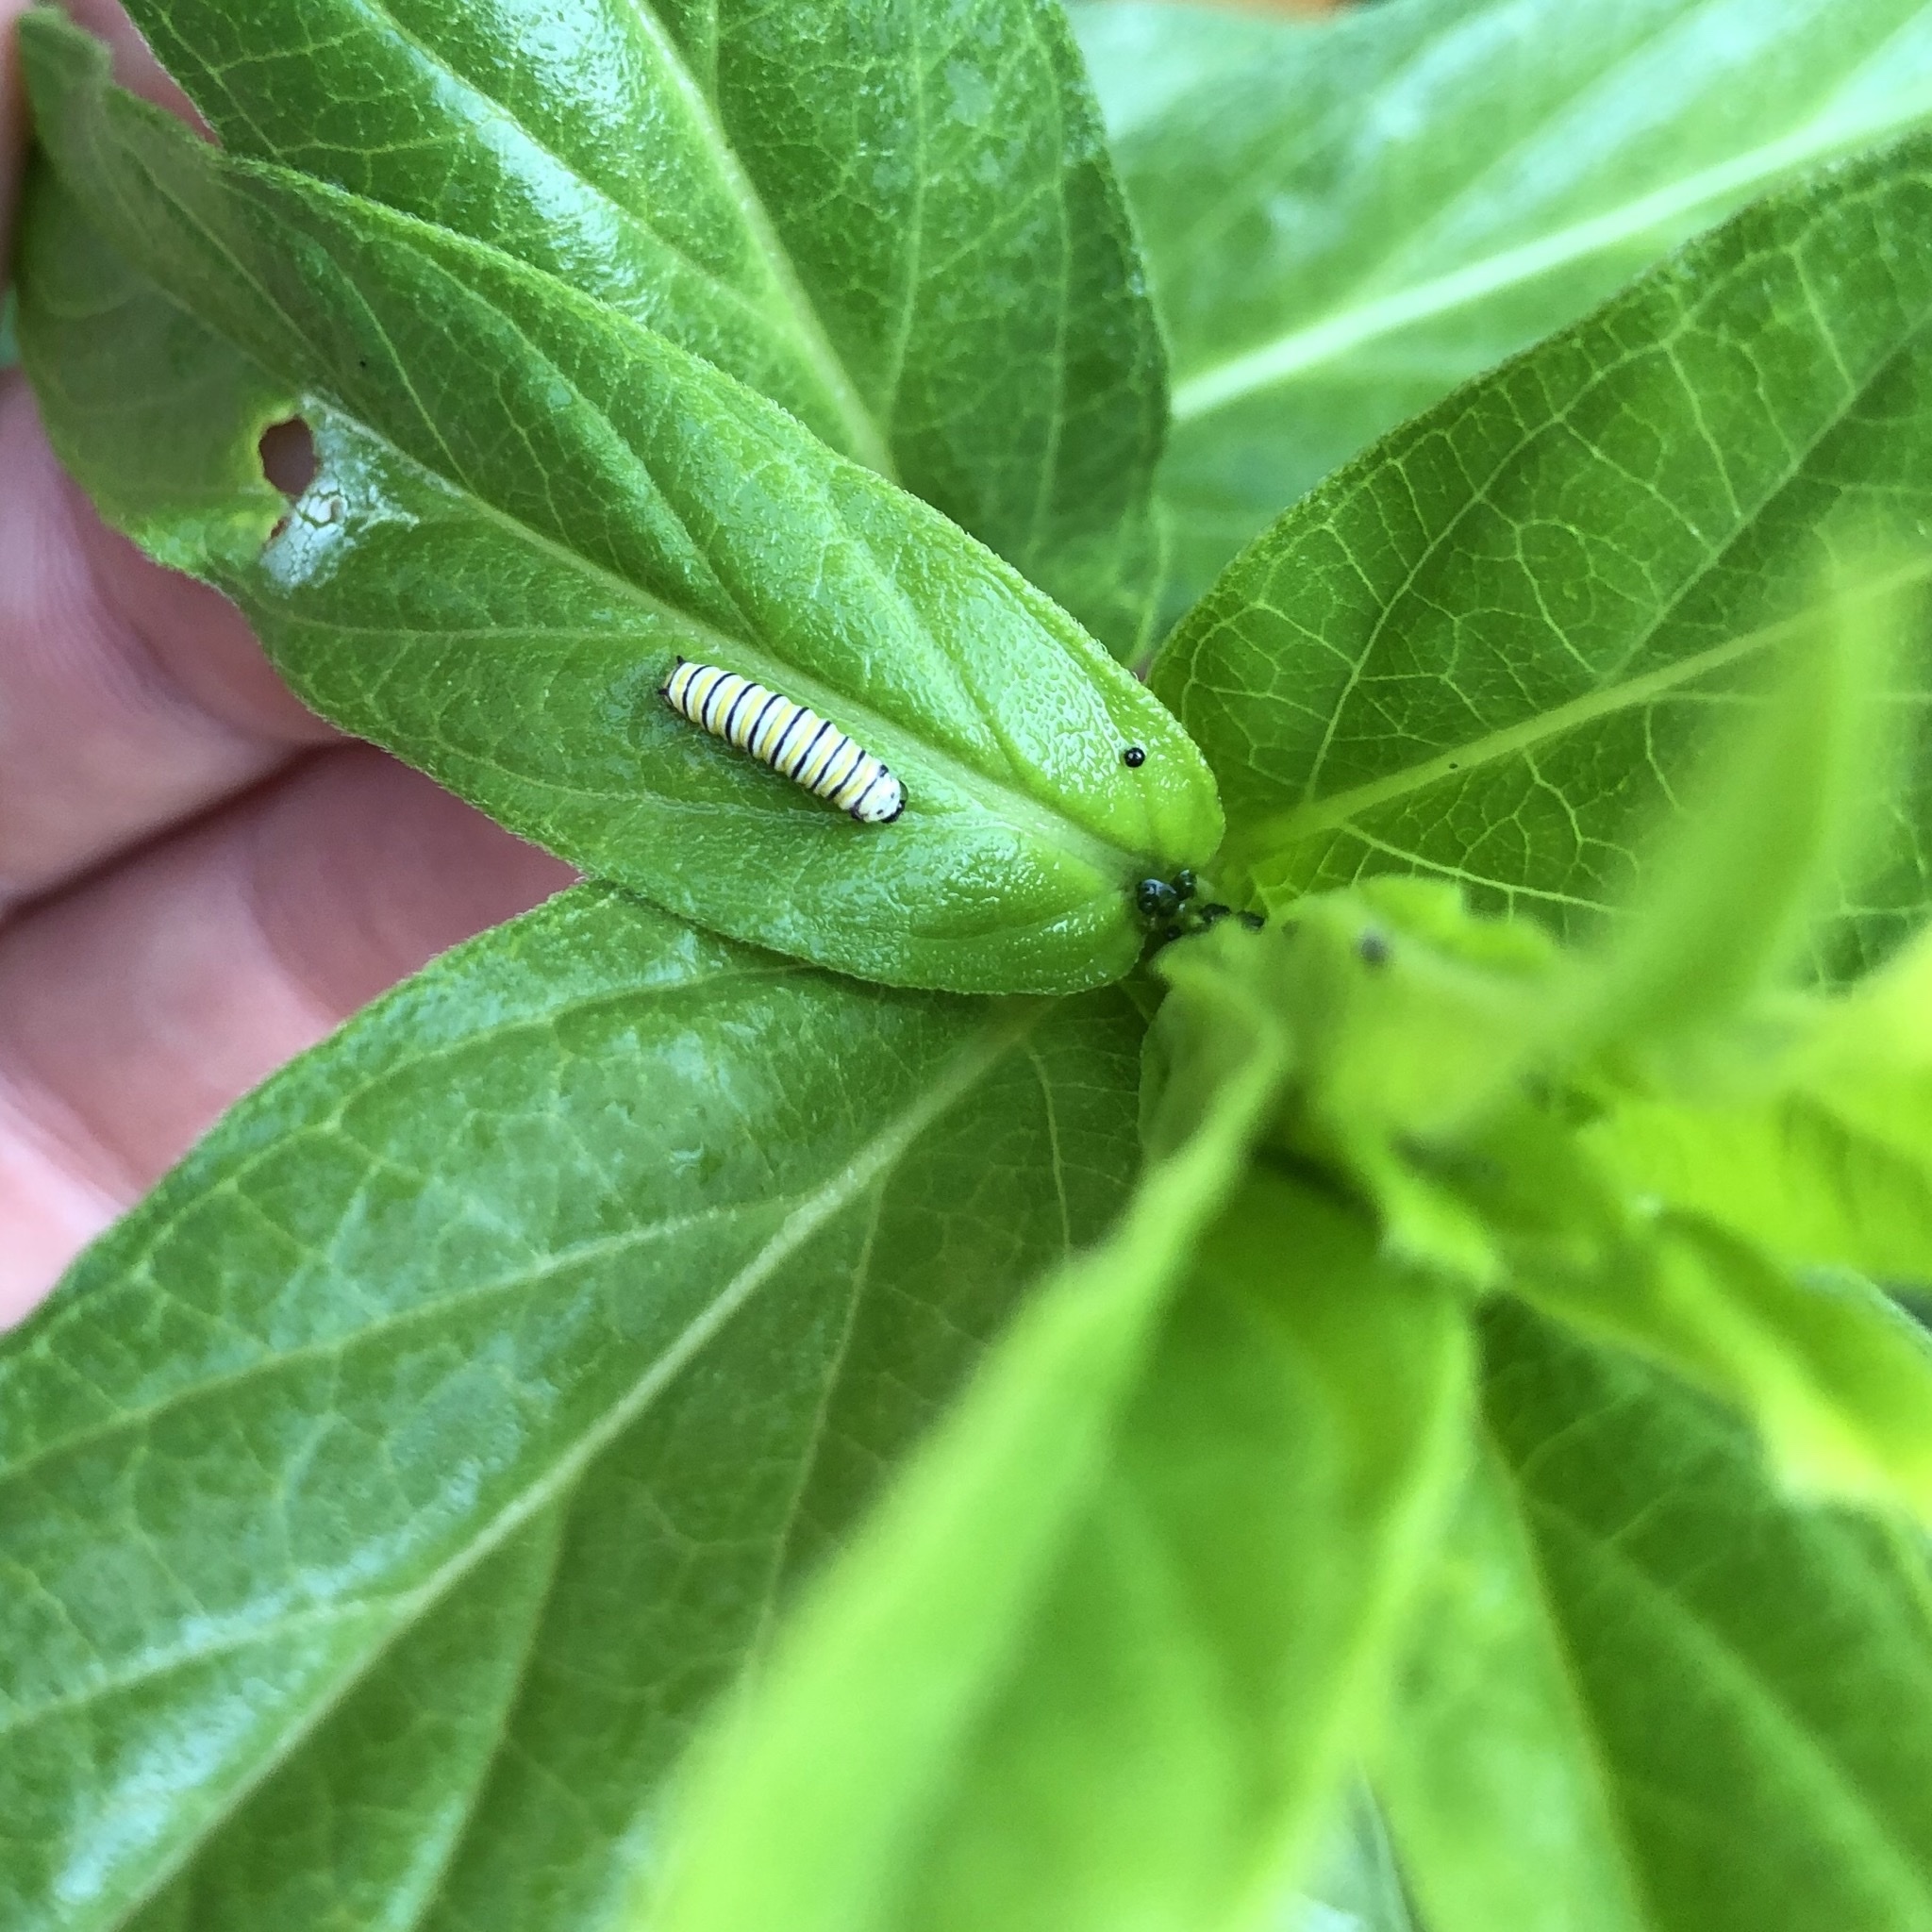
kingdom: Animalia
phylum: Arthropoda
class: Insecta
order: Lepidoptera
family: Nymphalidae
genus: Danaus
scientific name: Danaus plexippus
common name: Monarch
